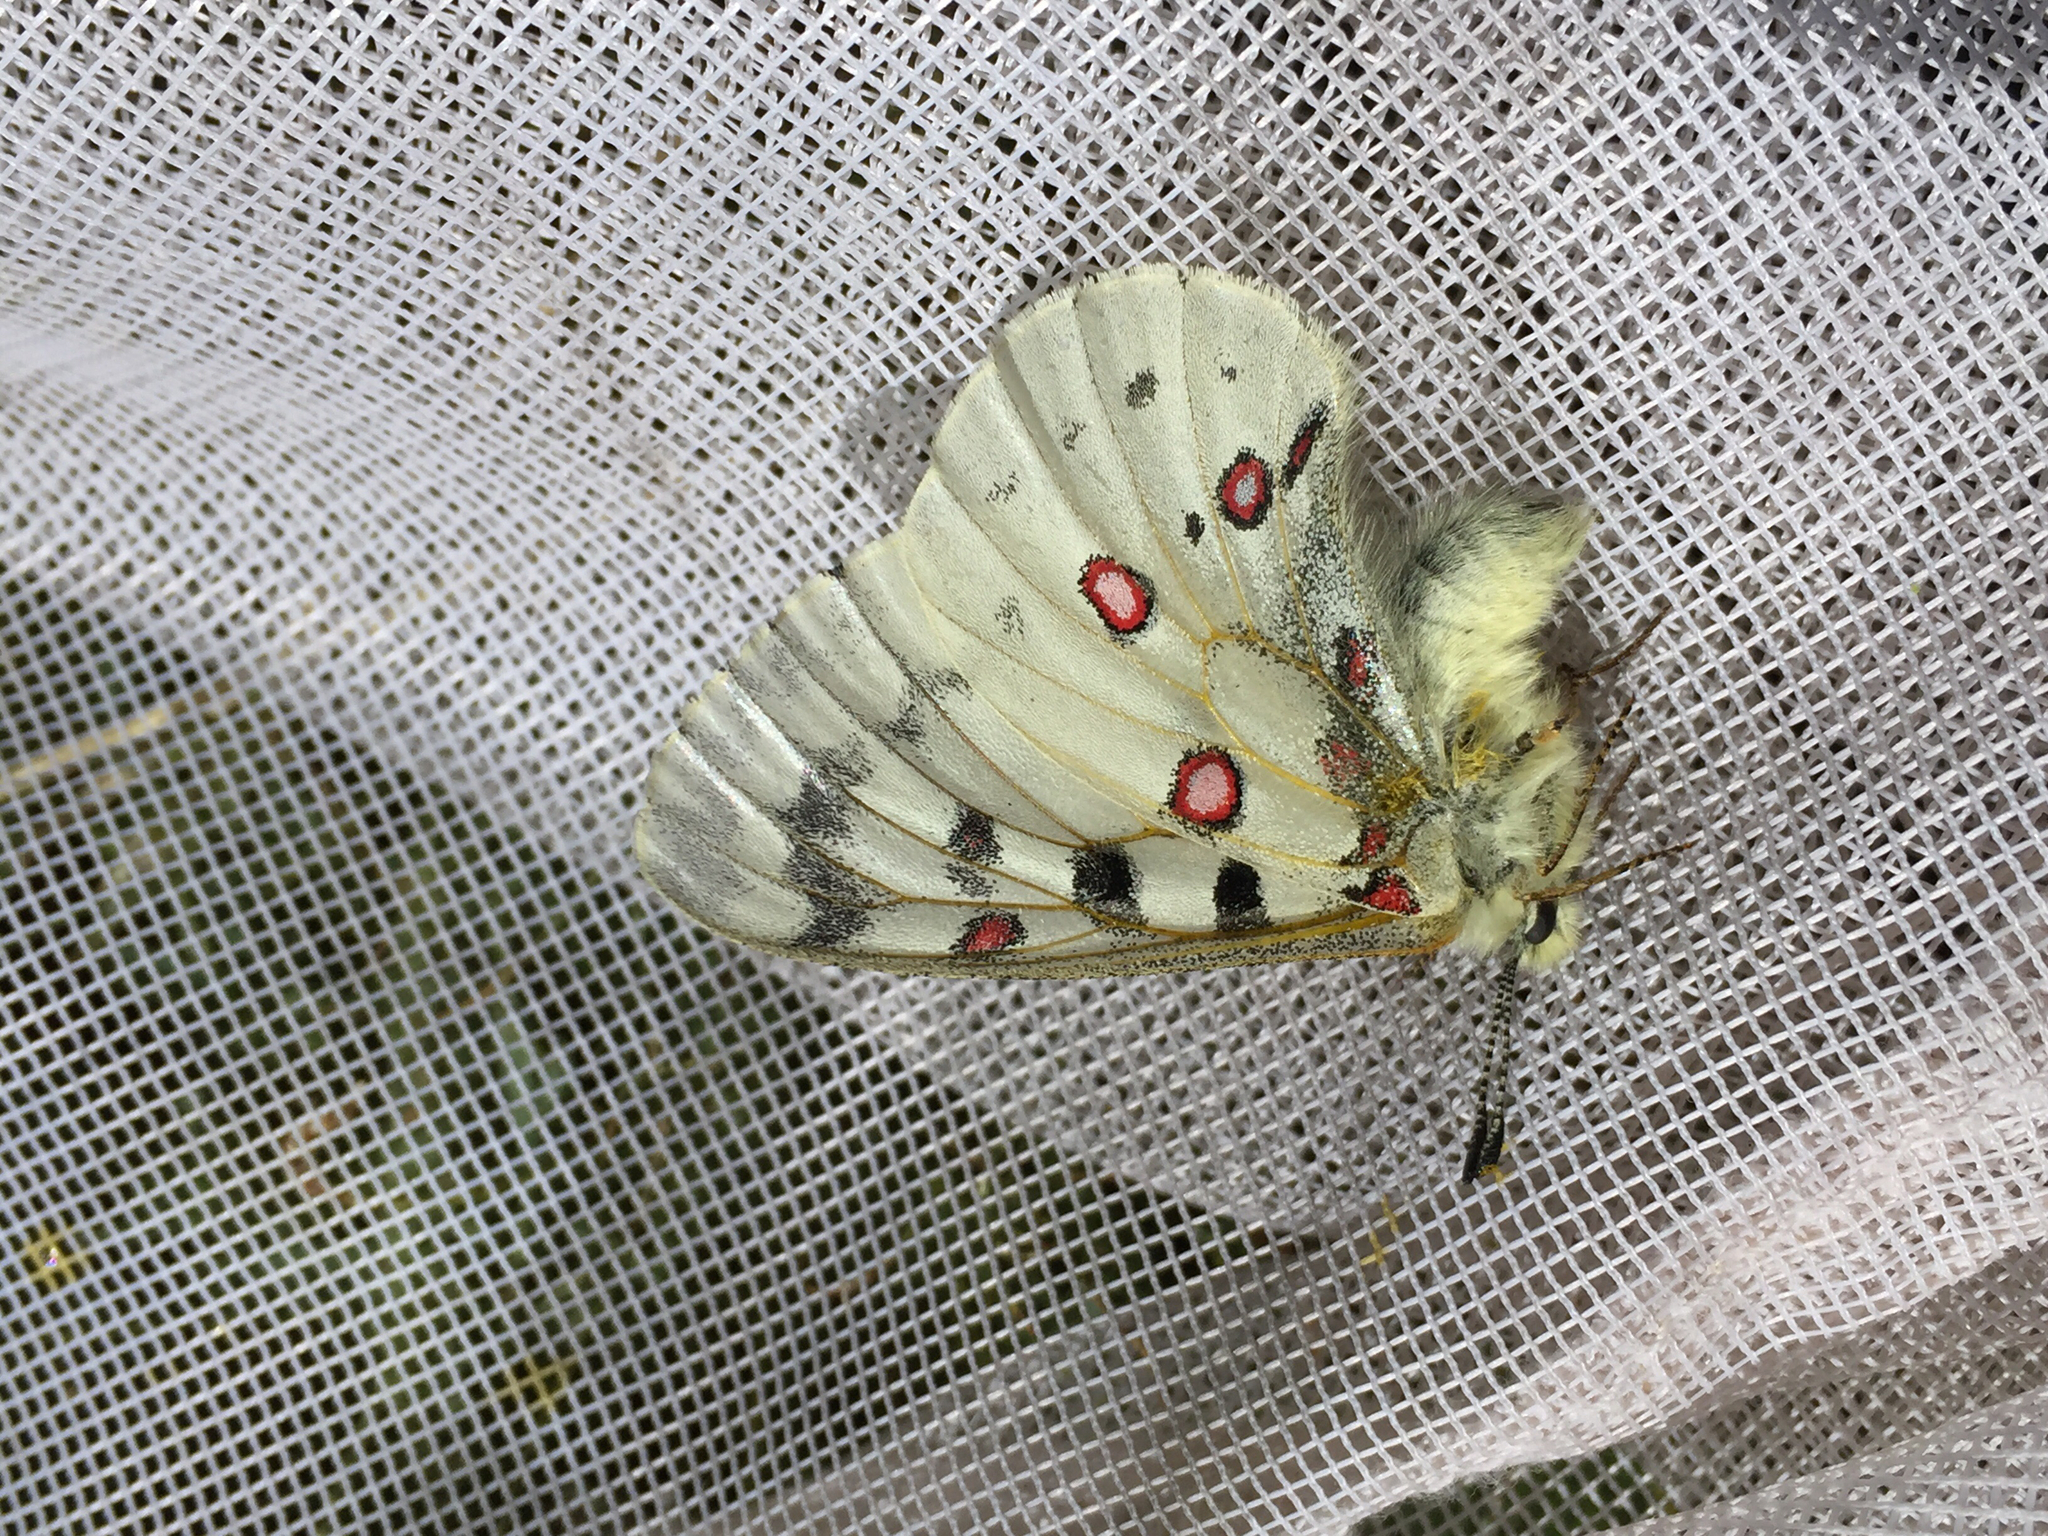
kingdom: Animalia
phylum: Arthropoda
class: Insecta
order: Lepidoptera
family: Papilionidae
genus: Parnassius
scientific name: Parnassius smintheus
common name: Mountain parnassian
